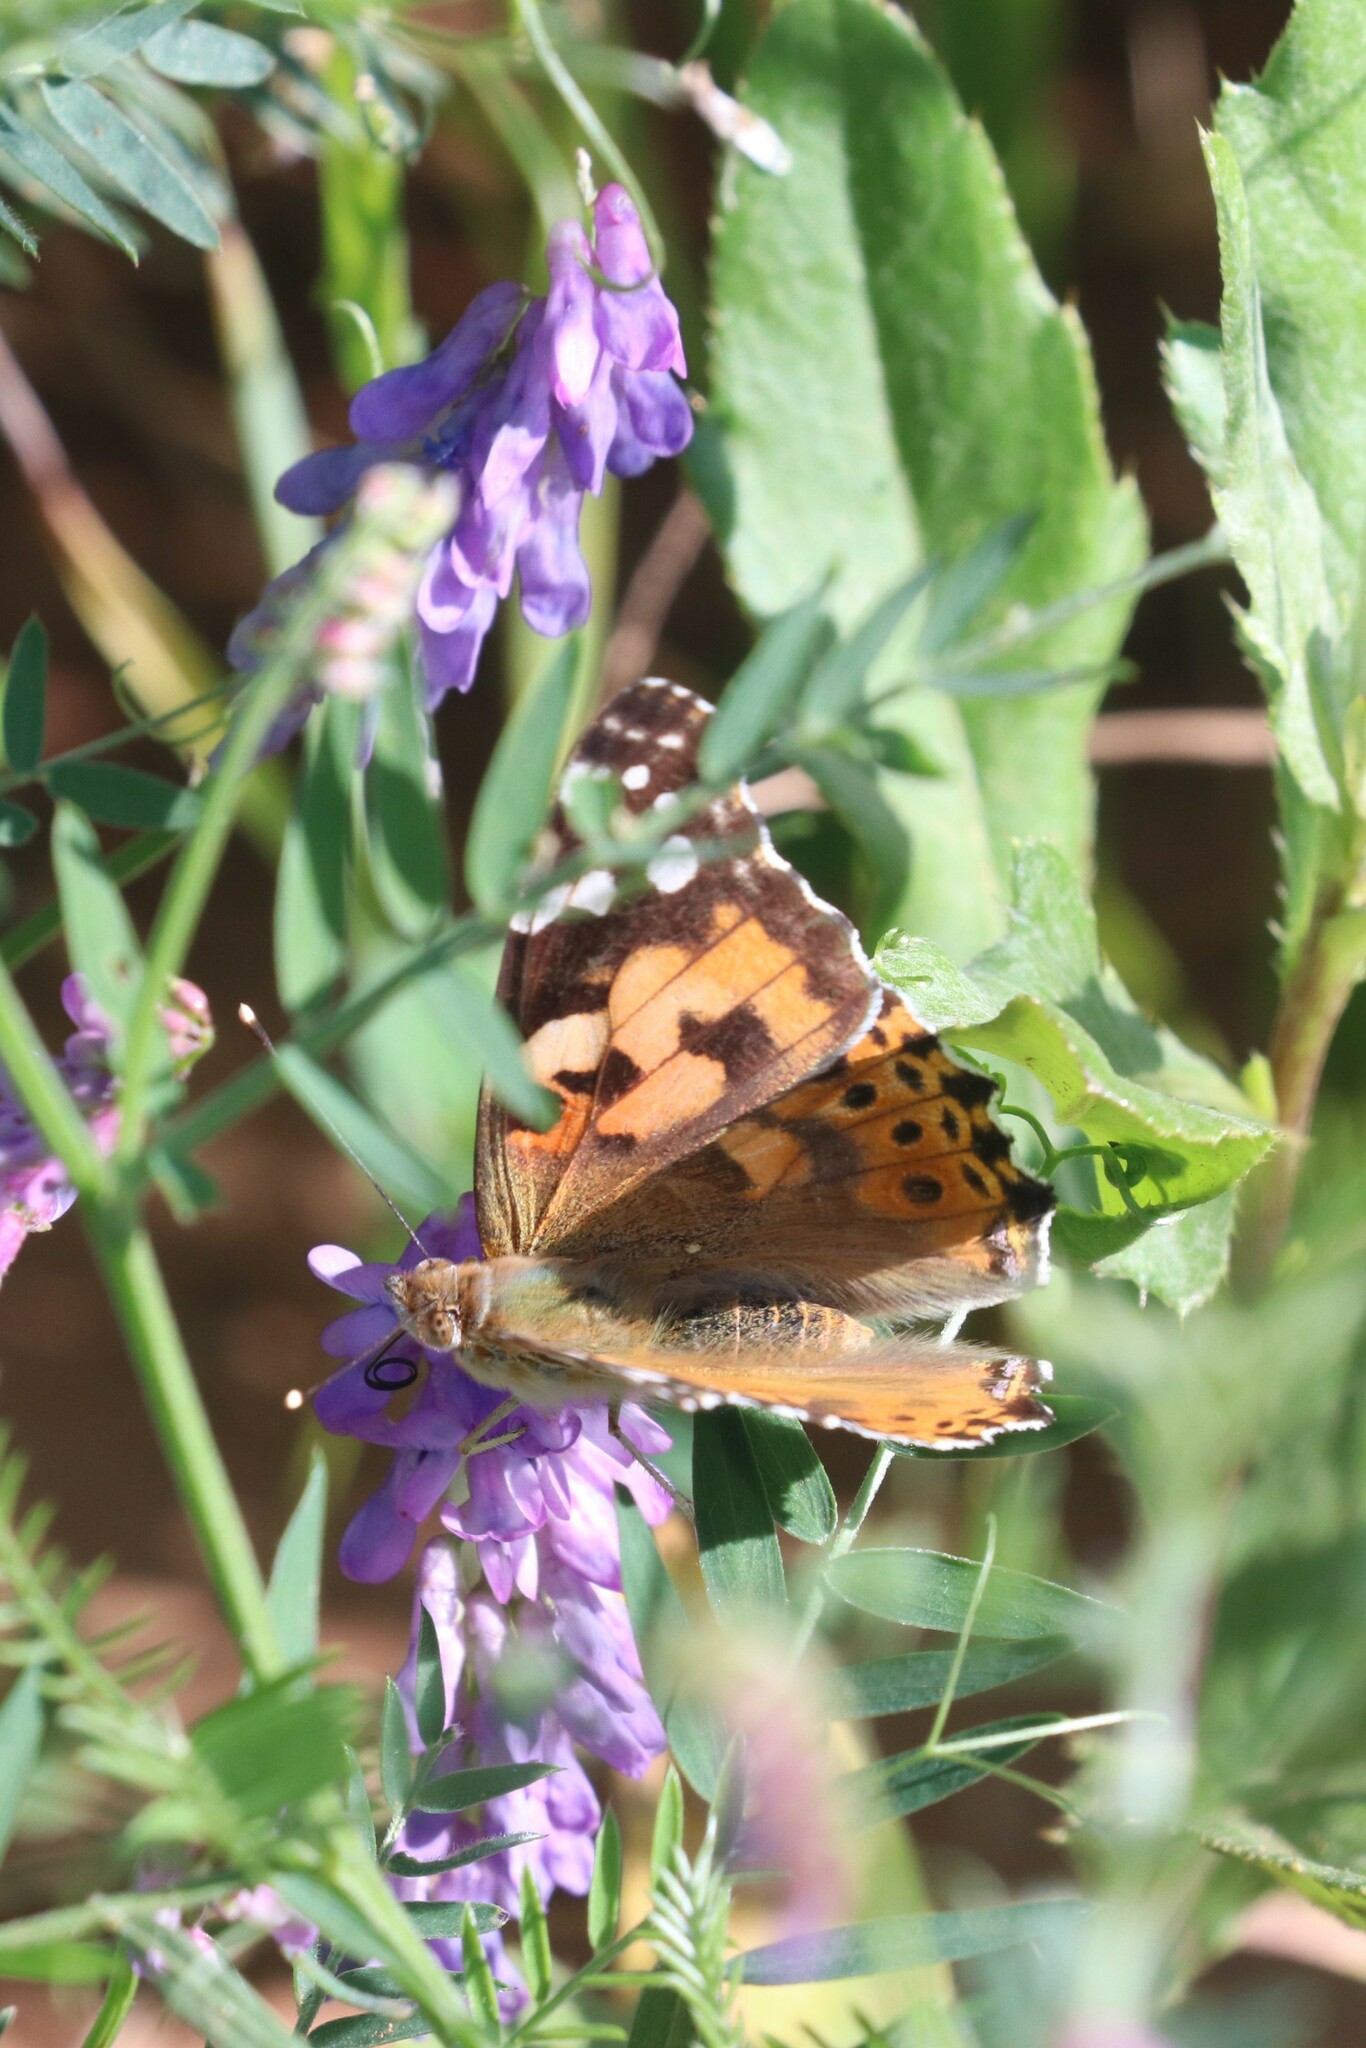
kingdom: Animalia
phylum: Arthropoda
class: Insecta
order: Lepidoptera
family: Nymphalidae
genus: Vanessa
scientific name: Vanessa cardui
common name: Painted lady
